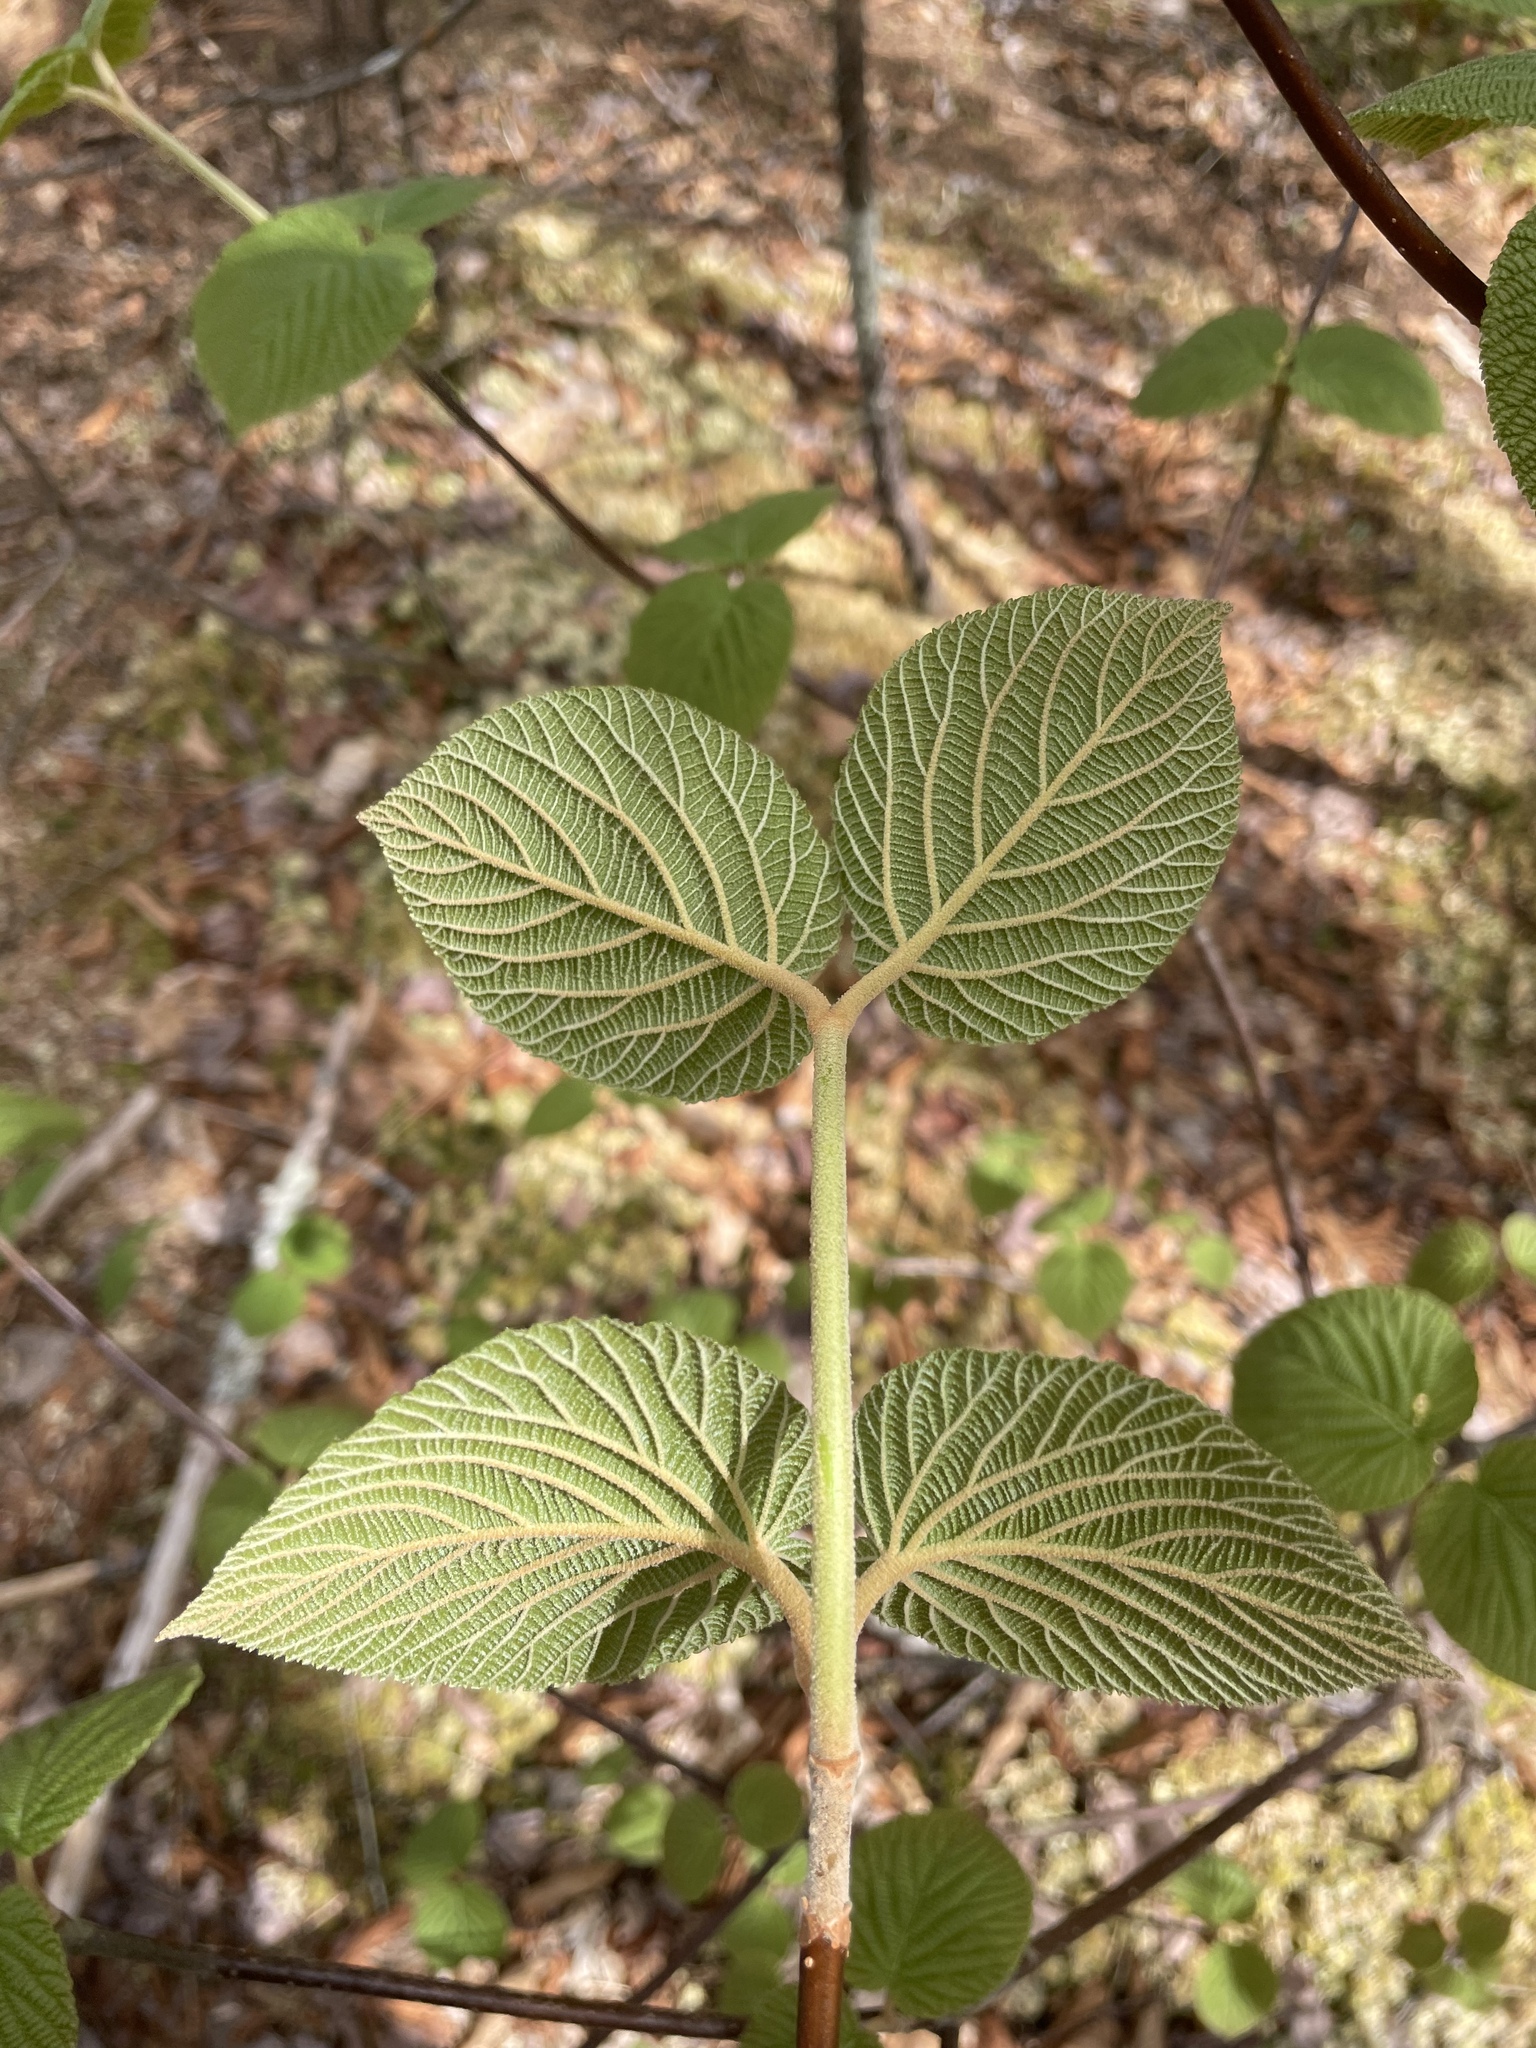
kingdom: Plantae
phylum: Tracheophyta
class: Magnoliopsida
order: Dipsacales
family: Viburnaceae
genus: Viburnum
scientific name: Viburnum lantanoides
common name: Hobblebush
